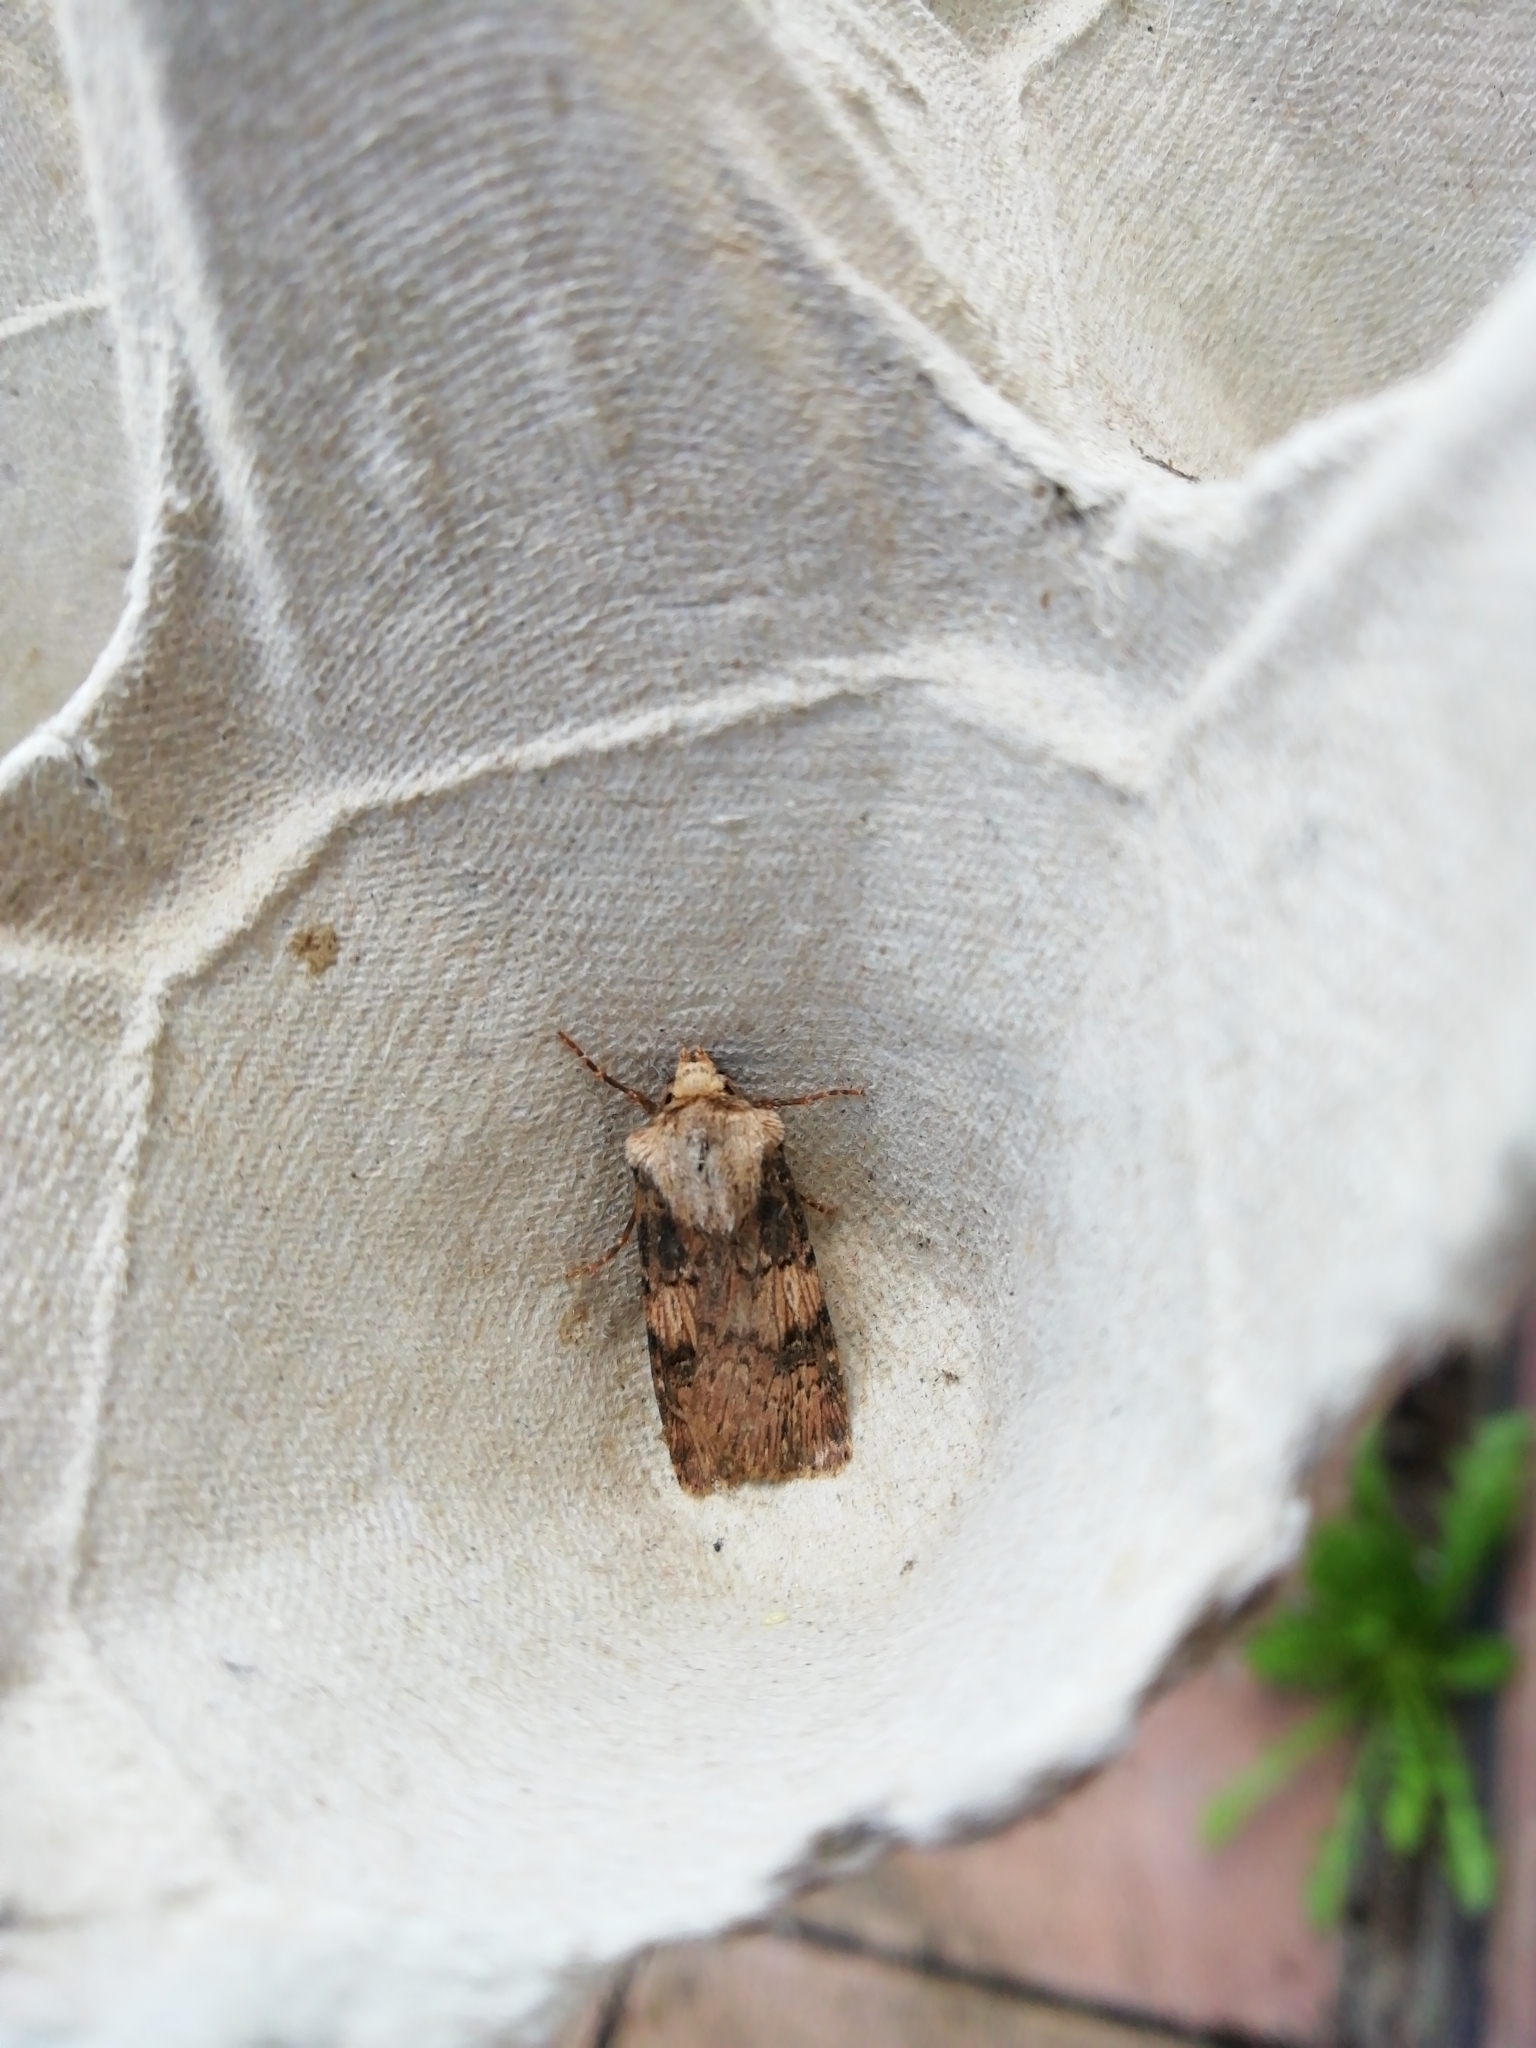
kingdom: Animalia
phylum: Arthropoda
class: Insecta
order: Lepidoptera
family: Noctuidae
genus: Agrotis
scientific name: Agrotis puta
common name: Shuttle-shaped dart
